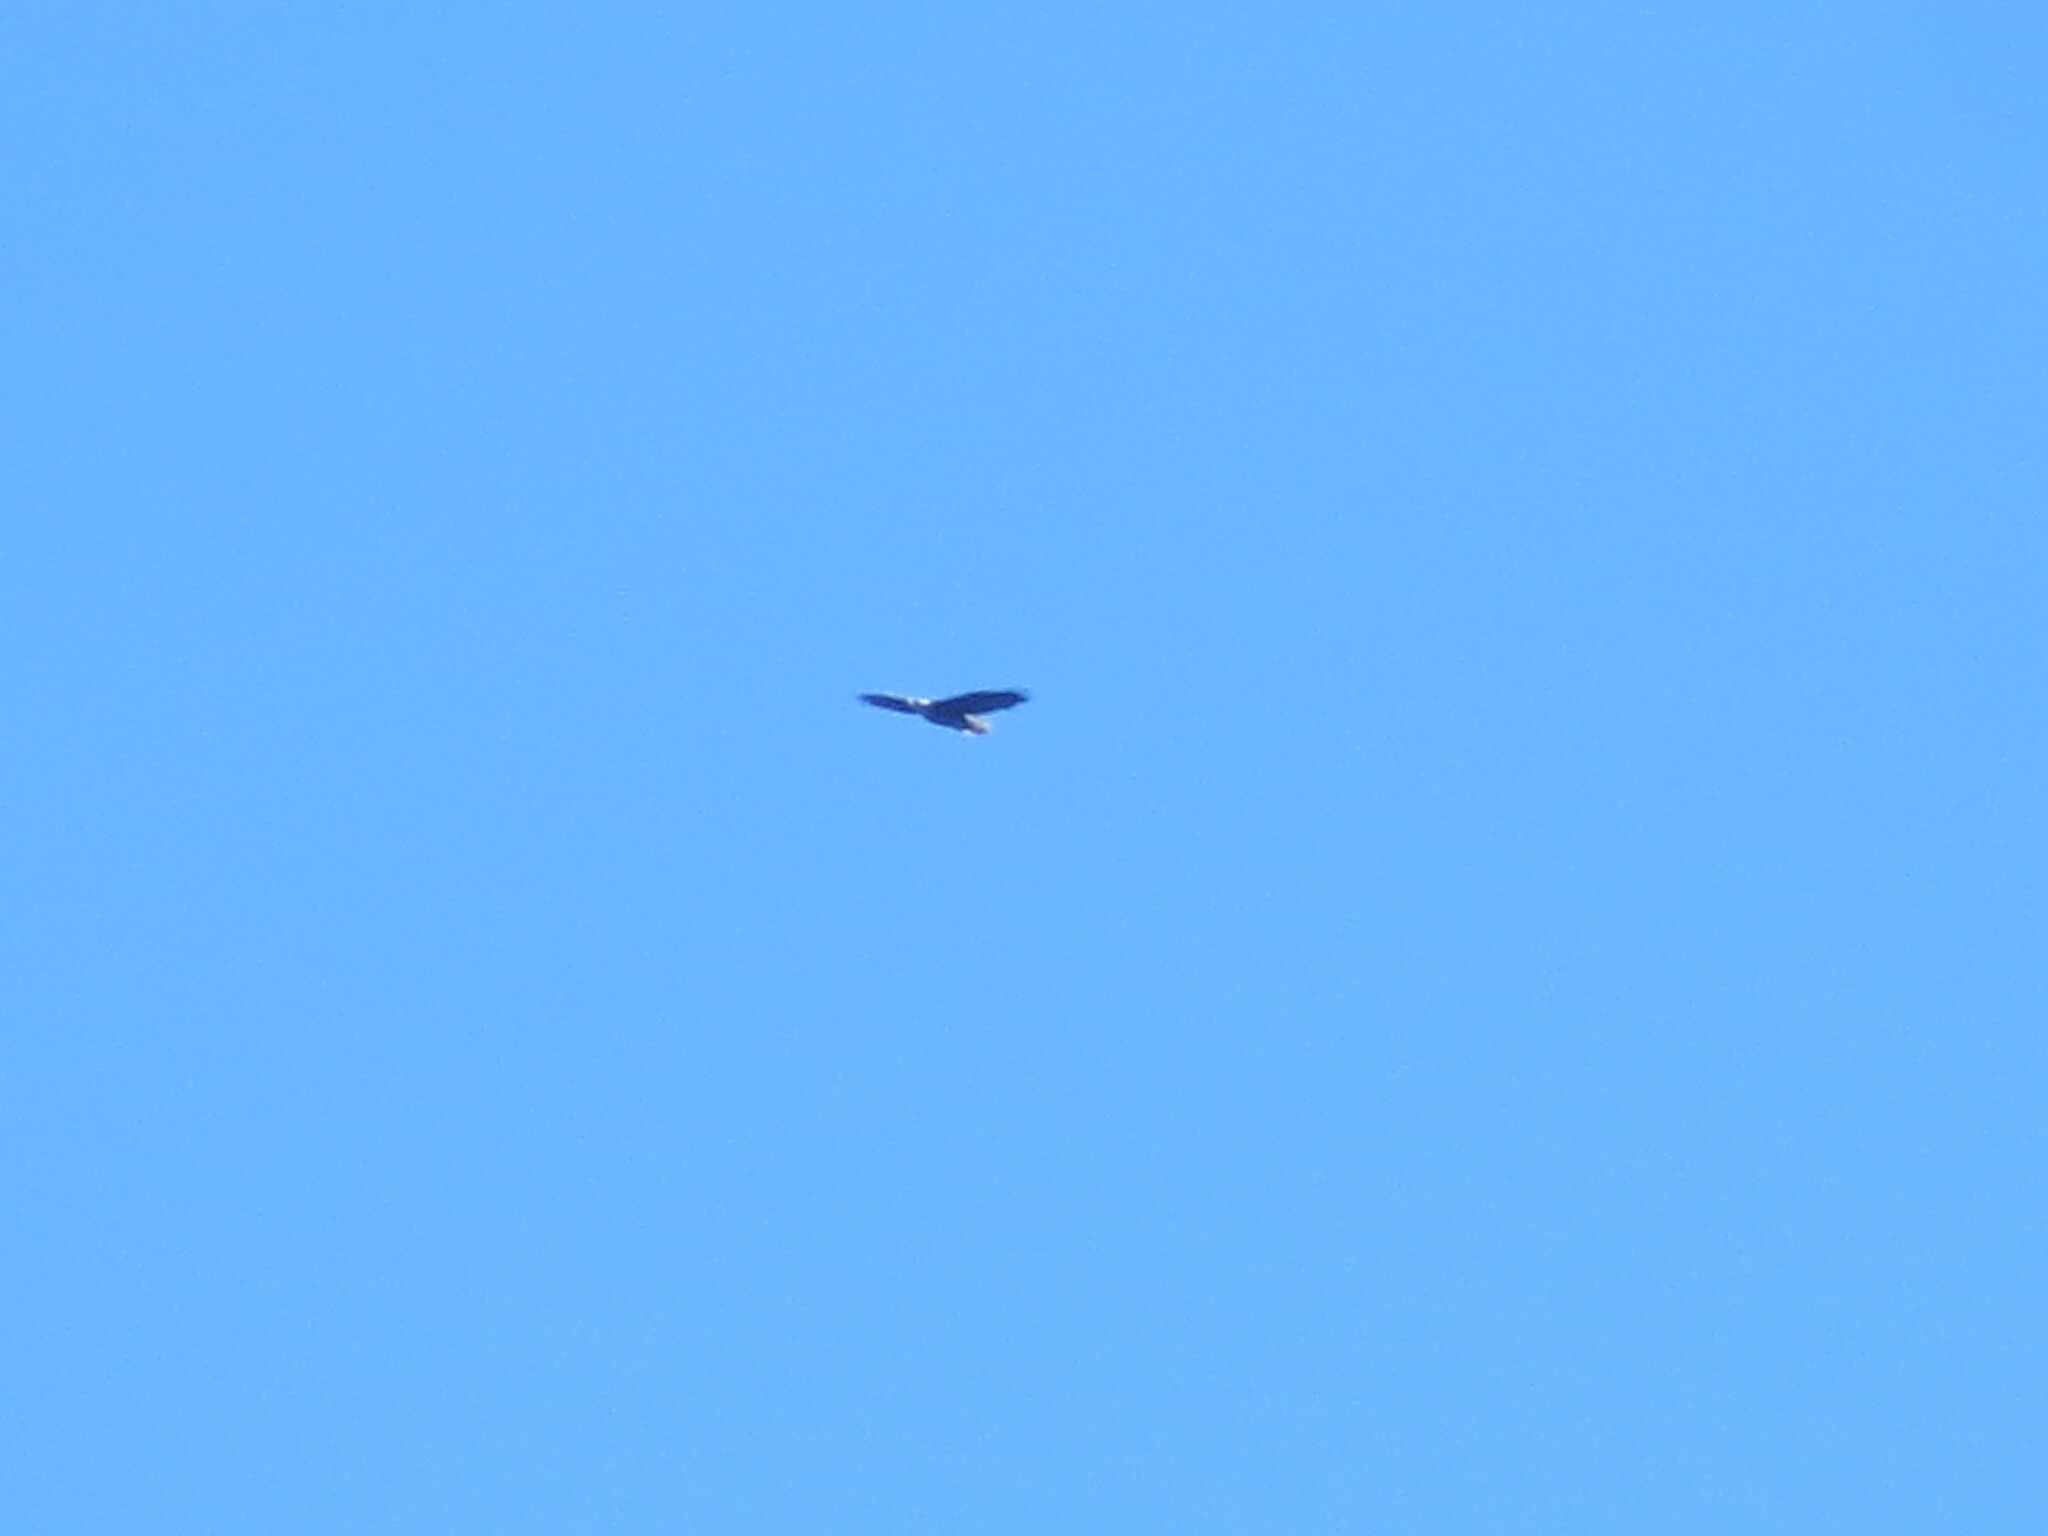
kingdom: Animalia
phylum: Chordata
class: Aves
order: Accipitriformes
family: Accipitridae
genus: Haliaeetus
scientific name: Haliaeetus leucocephalus
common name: Bald eagle
